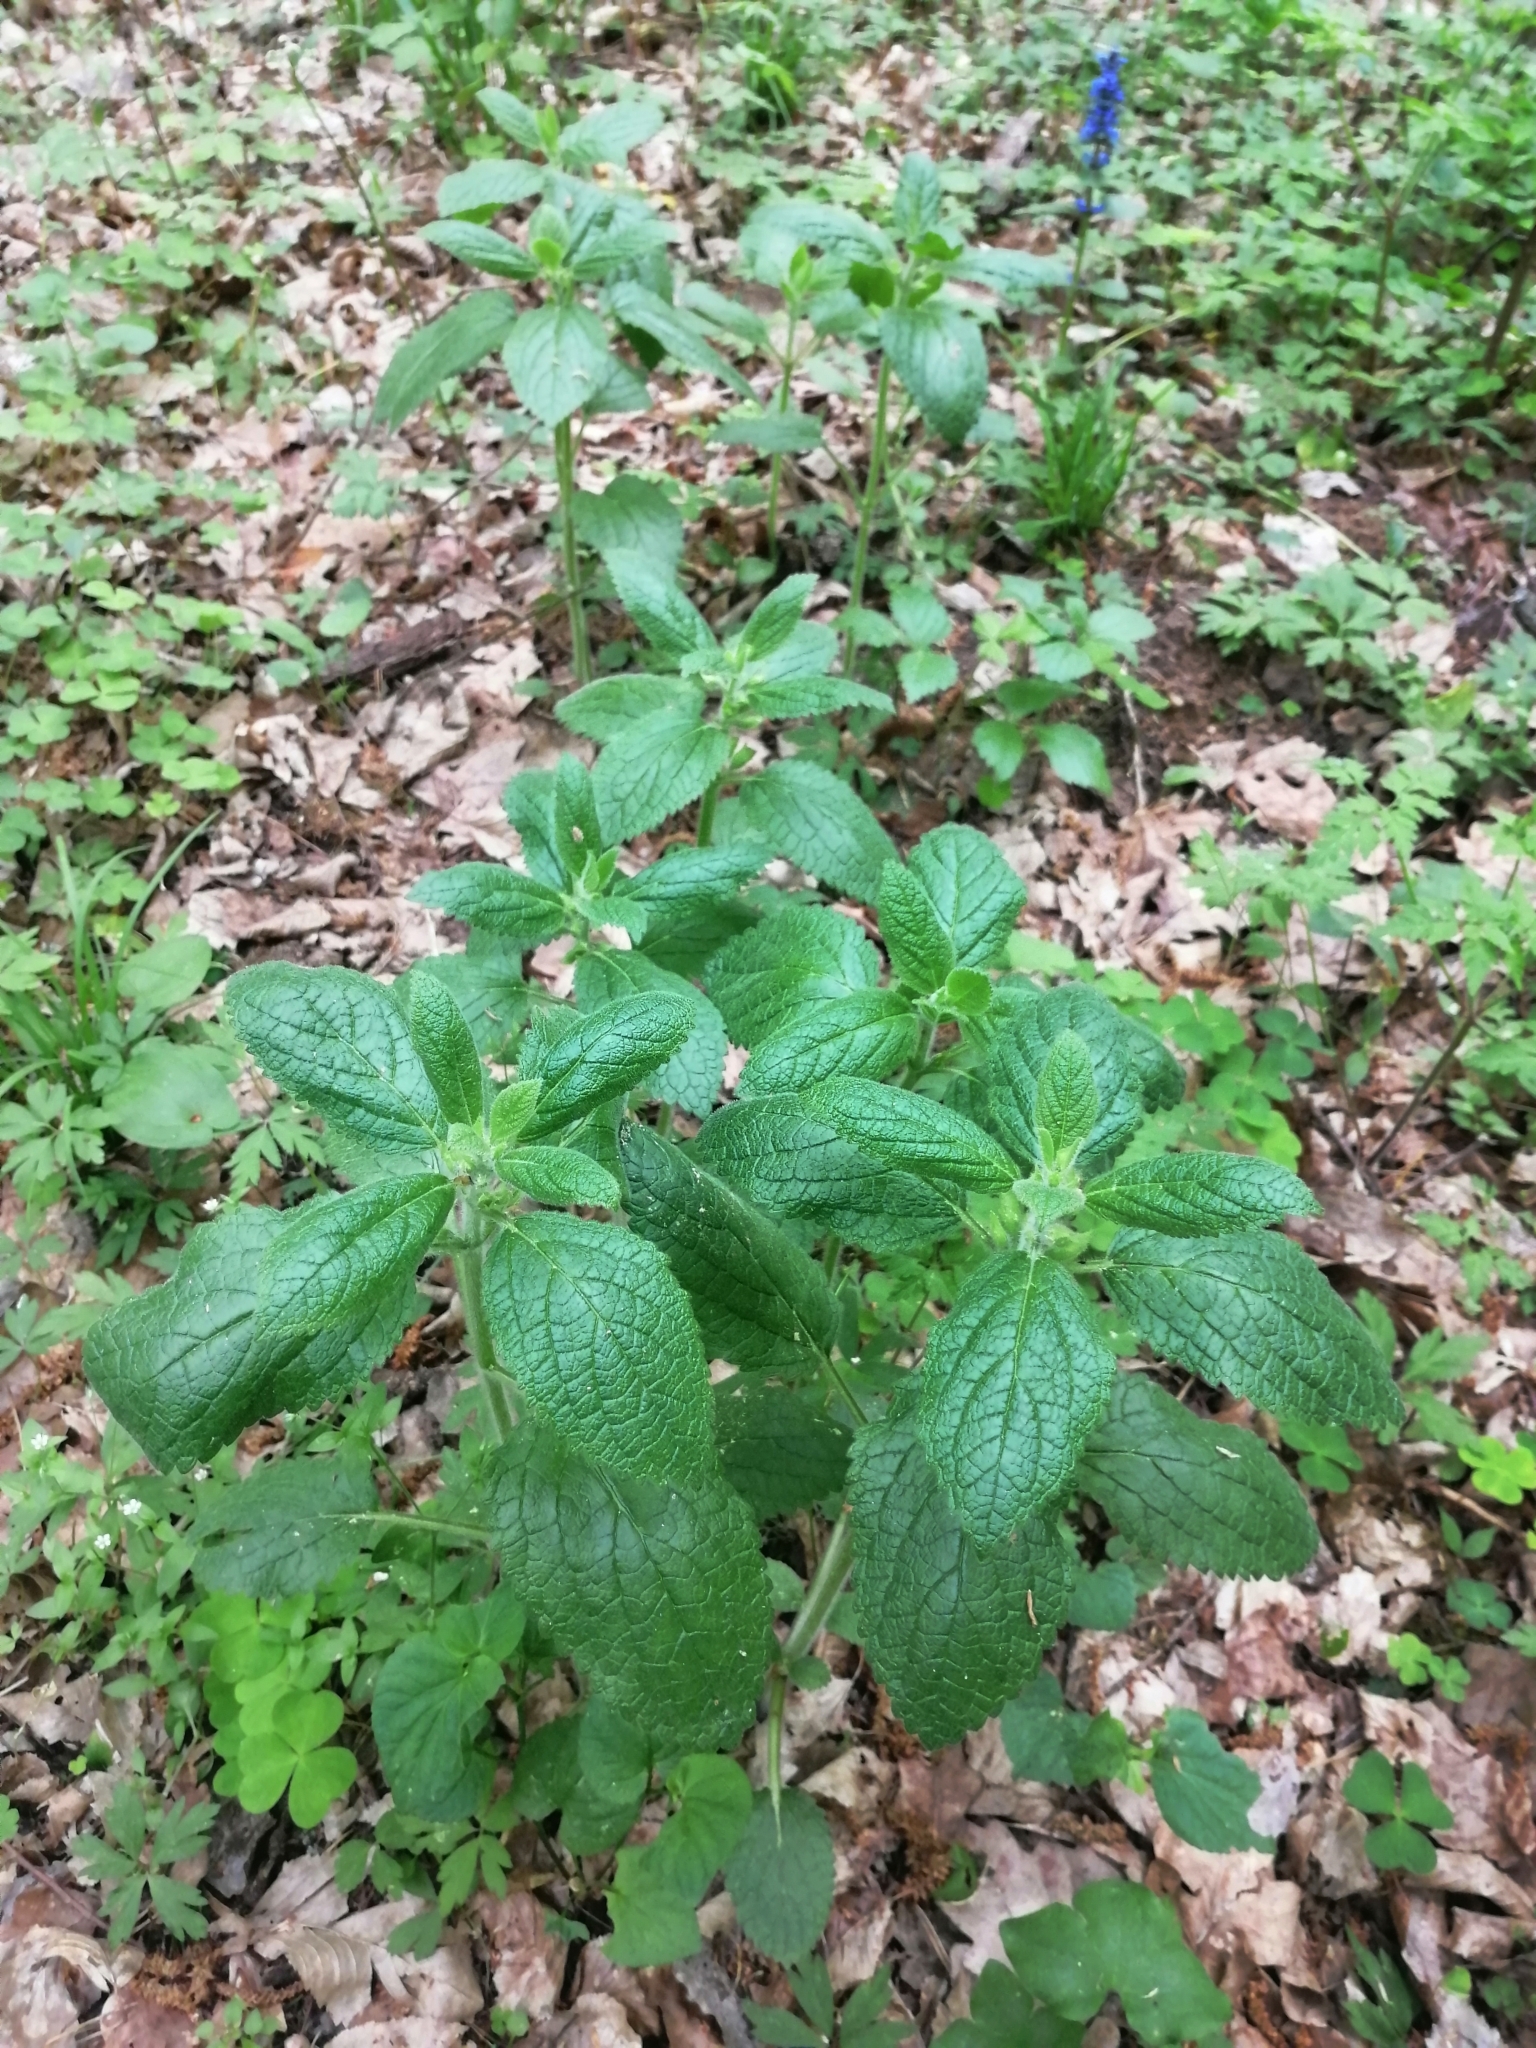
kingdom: Plantae
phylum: Tracheophyta
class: Magnoliopsida
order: Lamiales
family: Lamiaceae
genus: Melittis
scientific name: Melittis melissophyllum
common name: Bastard balm
